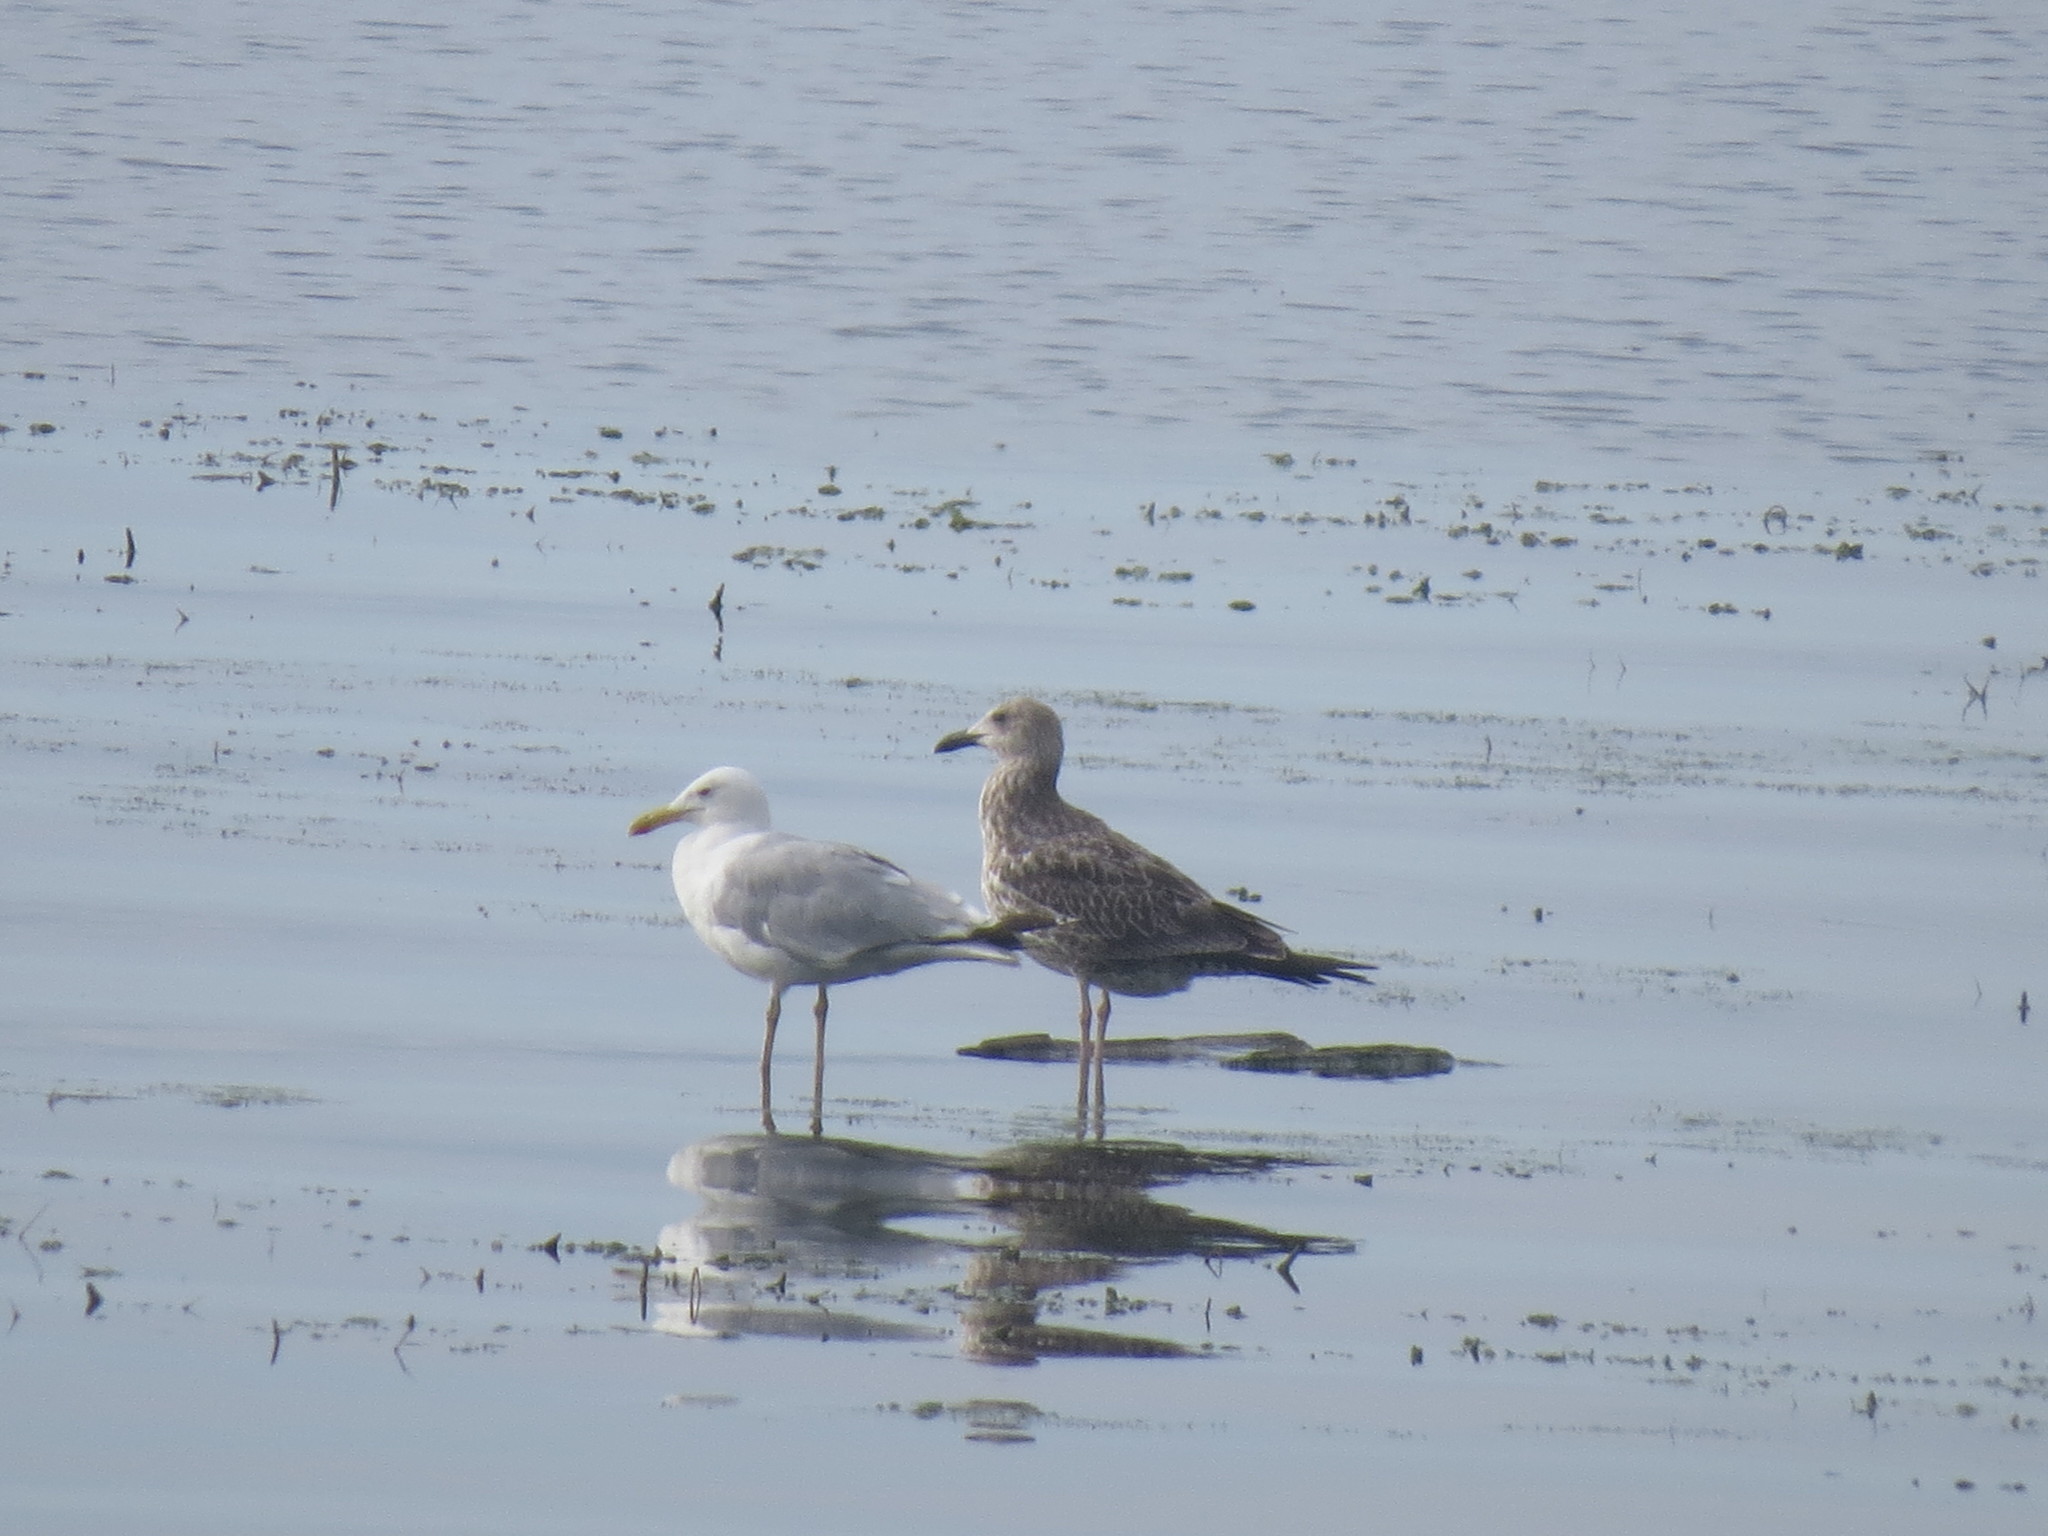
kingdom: Animalia
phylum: Chordata
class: Aves
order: Charadriiformes
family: Laridae
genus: Larus
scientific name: Larus cachinnans
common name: Caspian gull
